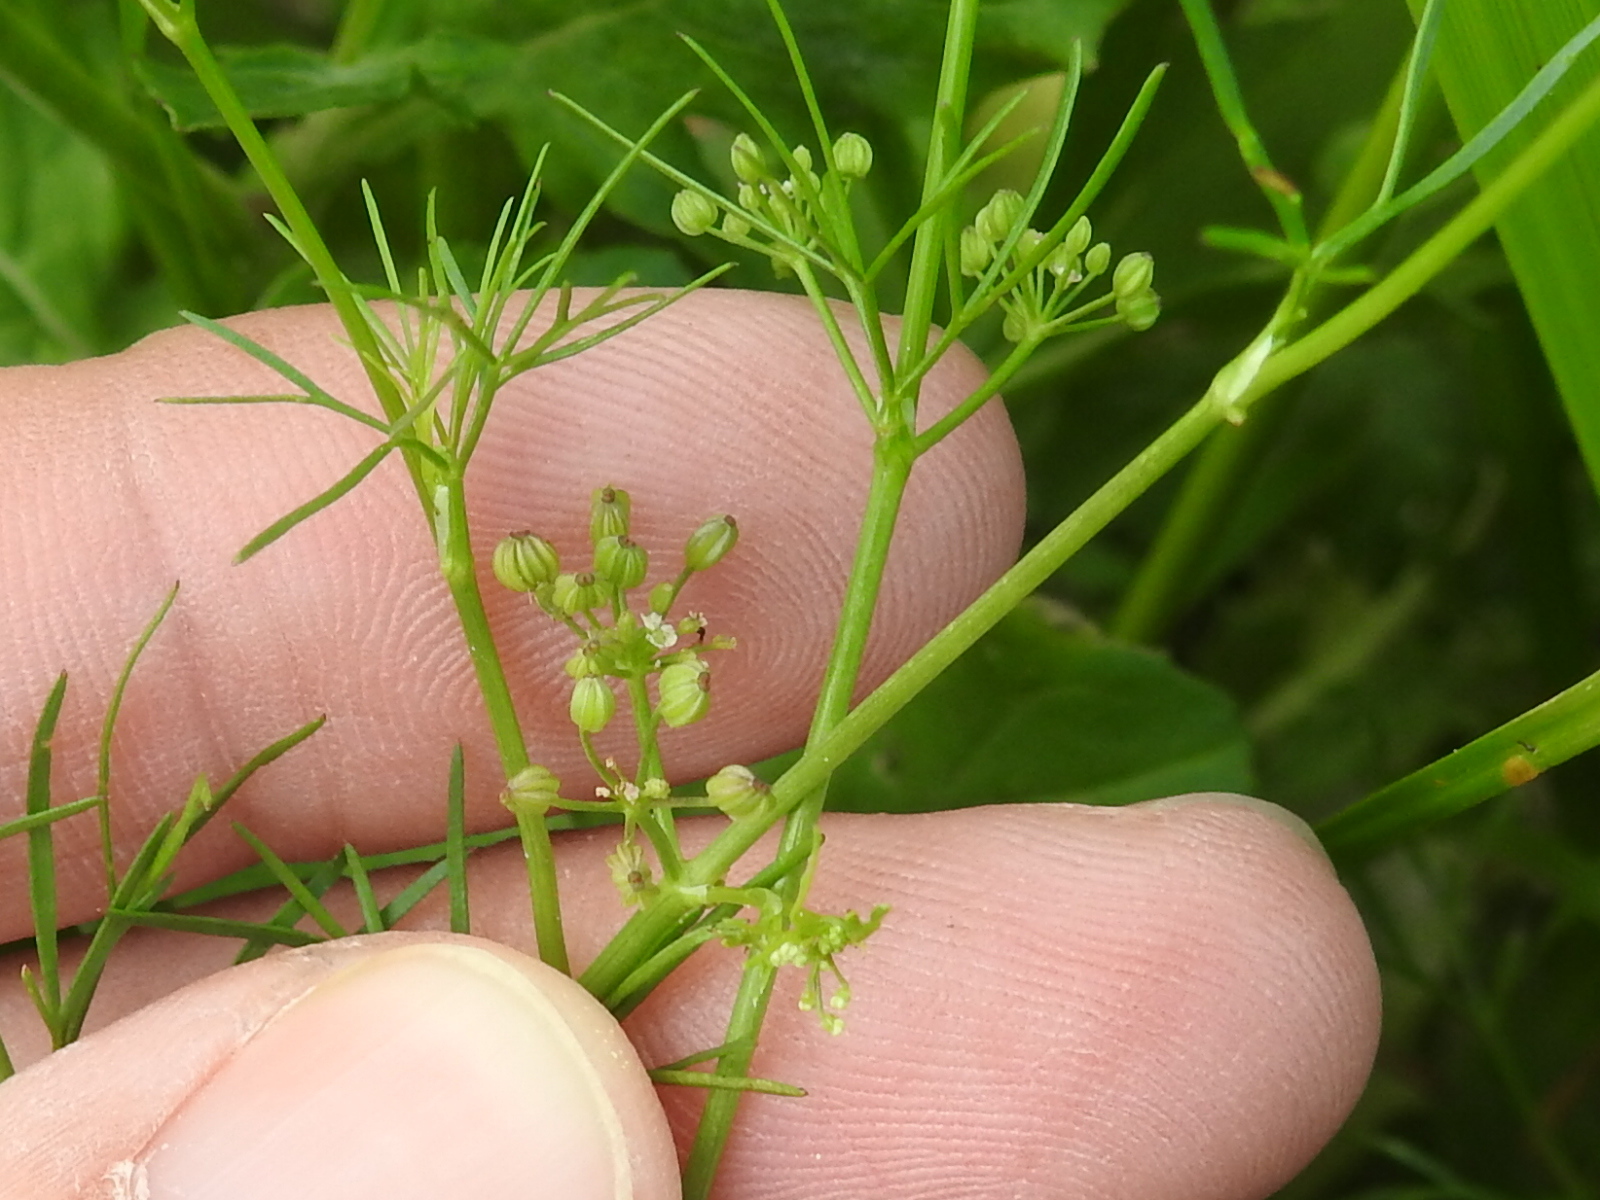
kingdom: Plantae
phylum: Tracheophyta
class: Magnoliopsida
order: Apiales
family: Apiaceae
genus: Cyclospermum
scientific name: Cyclospermum leptophyllum
